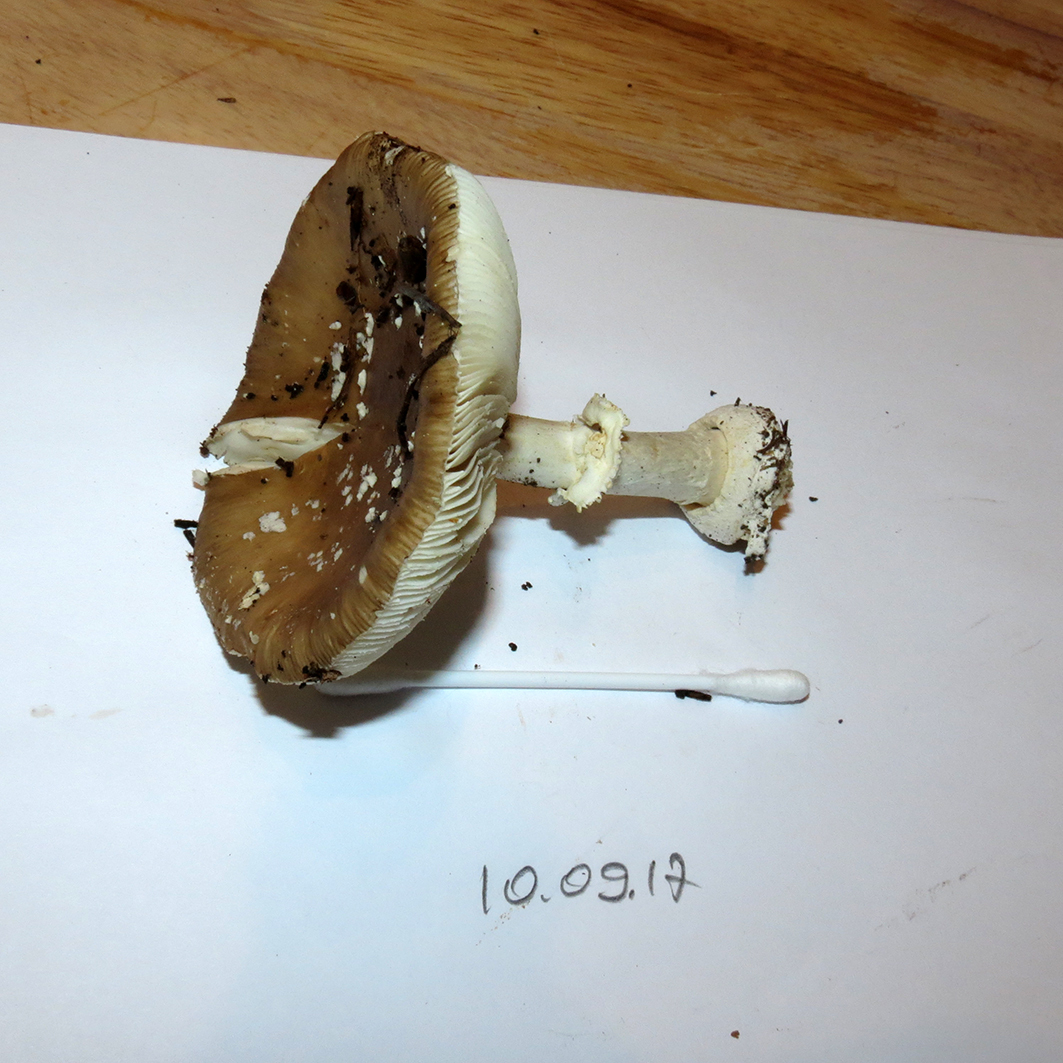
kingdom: Fungi
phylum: Basidiomycota
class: Agaricomycetes
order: Agaricales
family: Amanitaceae
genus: Amanita
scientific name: Amanita pantherina
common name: Panthercap
